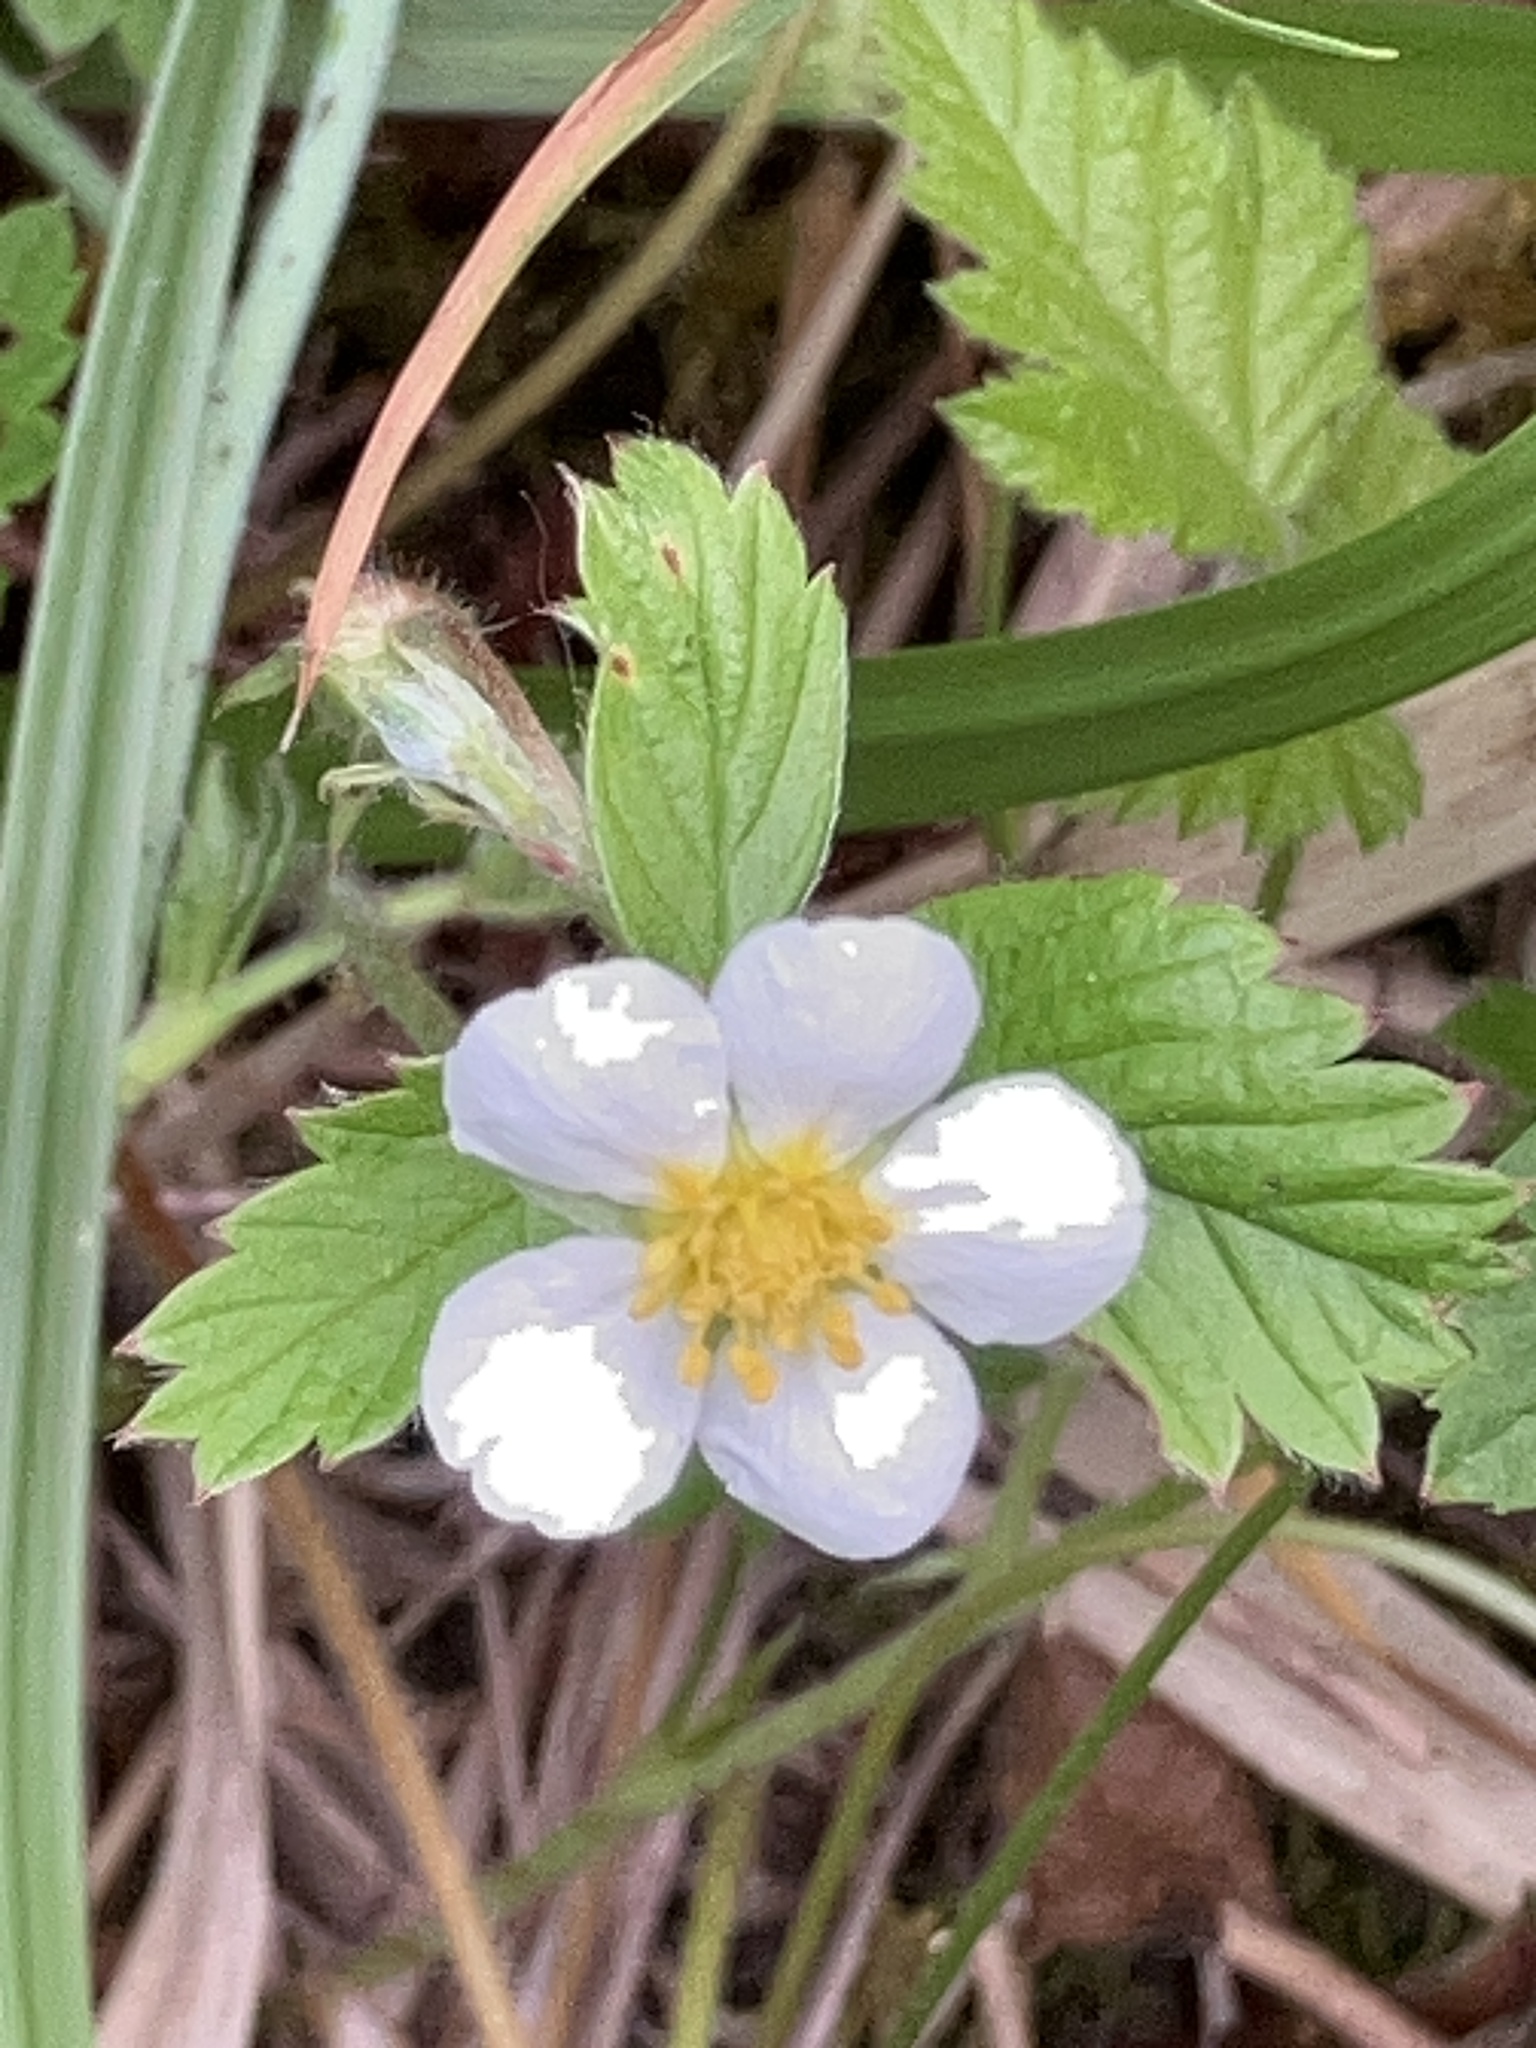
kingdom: Plantae
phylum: Tracheophyta
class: Magnoliopsida
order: Rosales
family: Rosaceae
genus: Fragaria
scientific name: Fragaria vesca
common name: Wild strawberry
